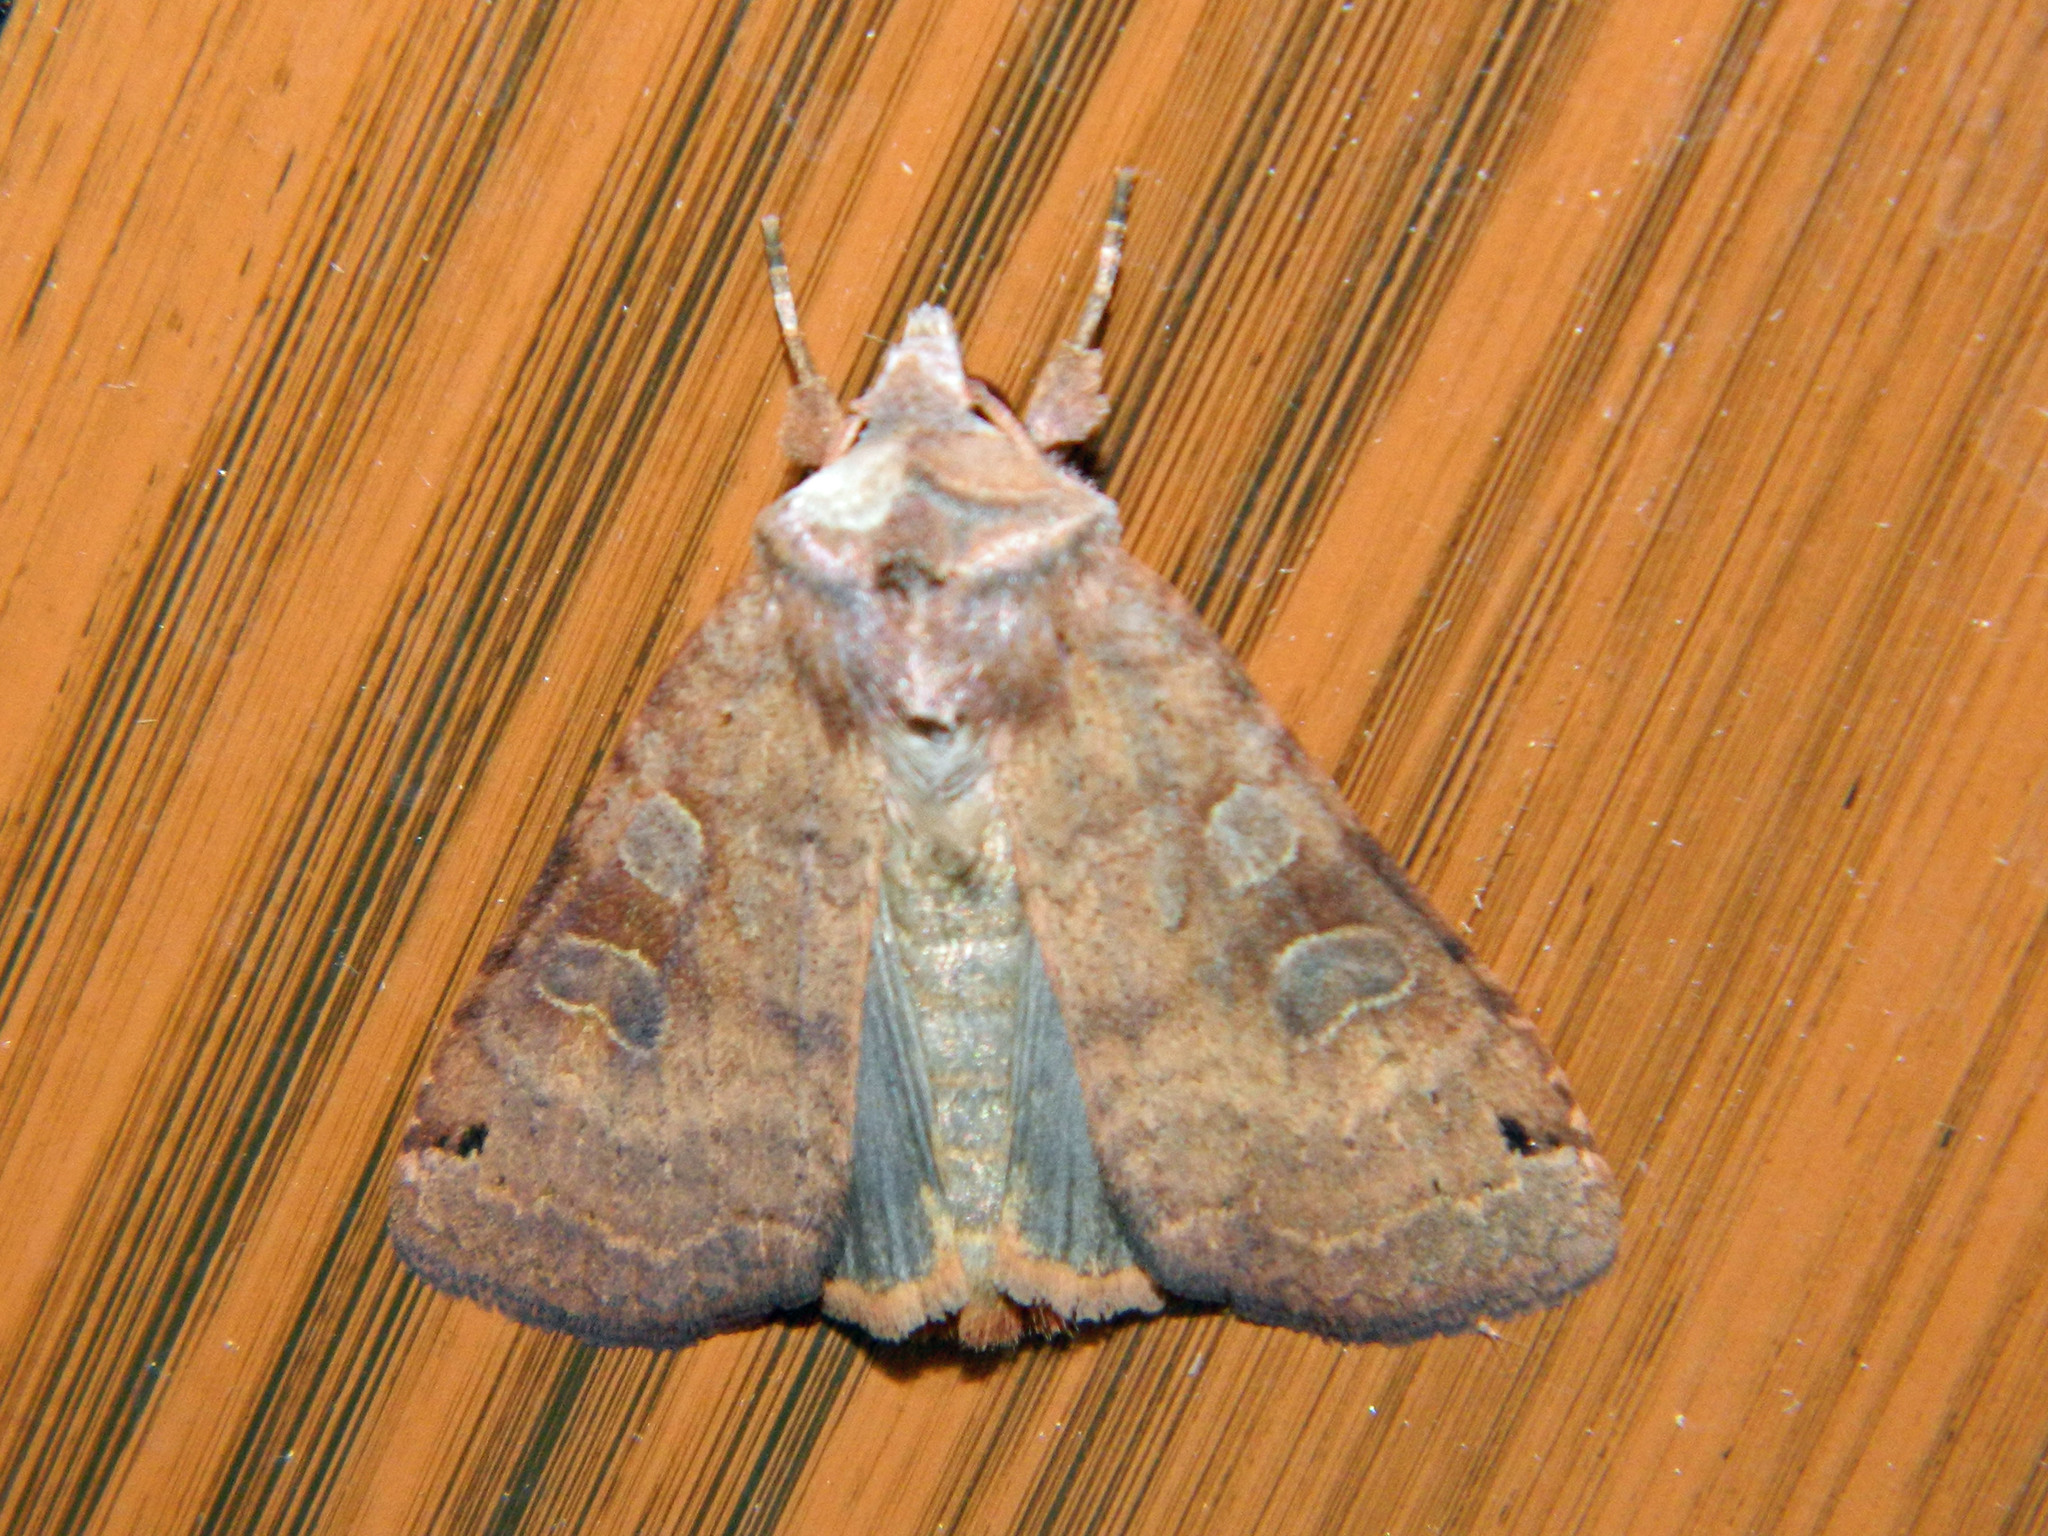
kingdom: Animalia
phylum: Arthropoda
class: Insecta
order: Lepidoptera
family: Noctuidae
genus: Xestia
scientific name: Xestia smithii
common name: Smith's dart
